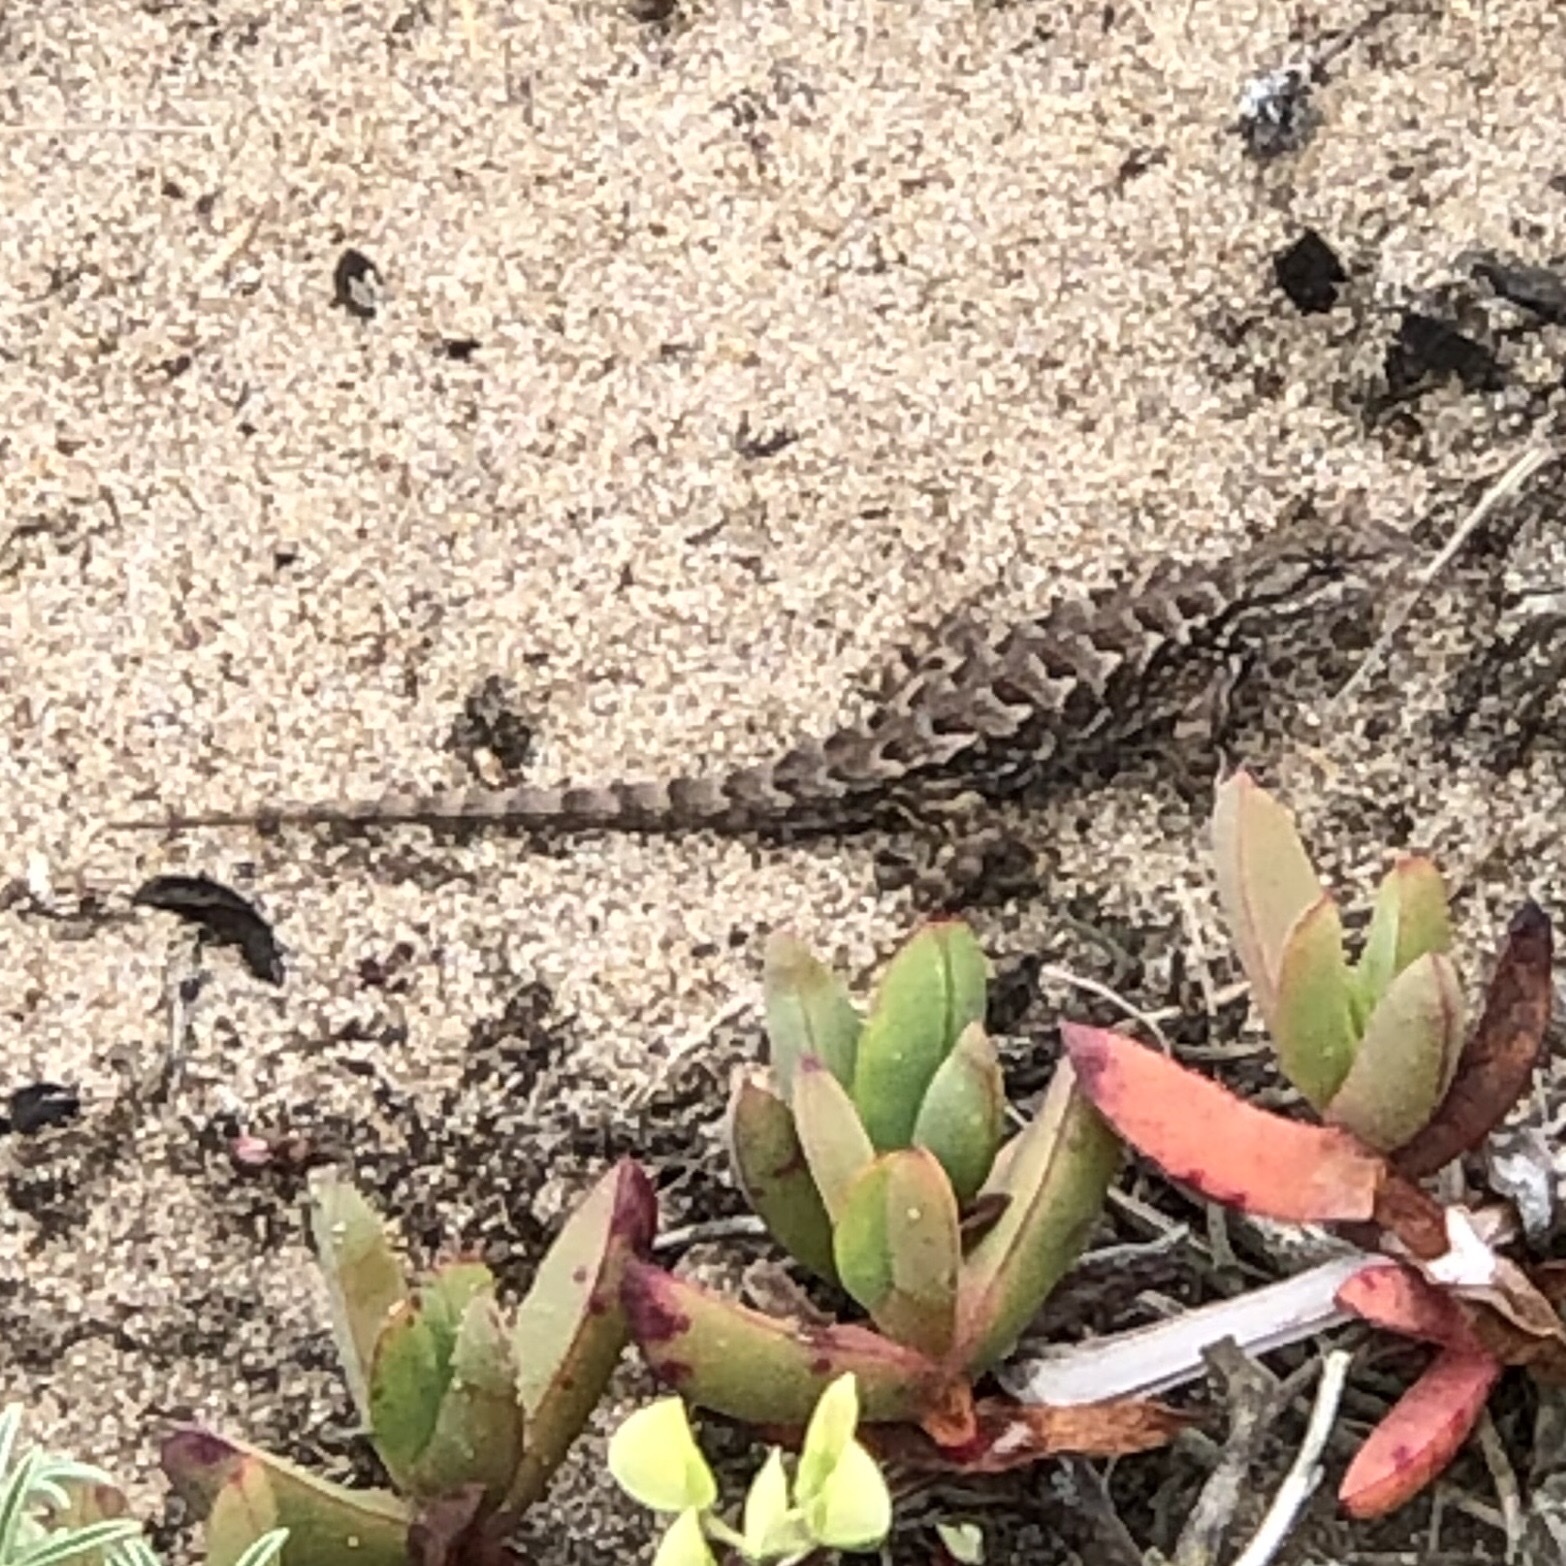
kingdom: Animalia
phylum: Chordata
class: Squamata
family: Phrynosomatidae
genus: Sceloporus
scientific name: Sceloporus occidentalis
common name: Western fence lizard
